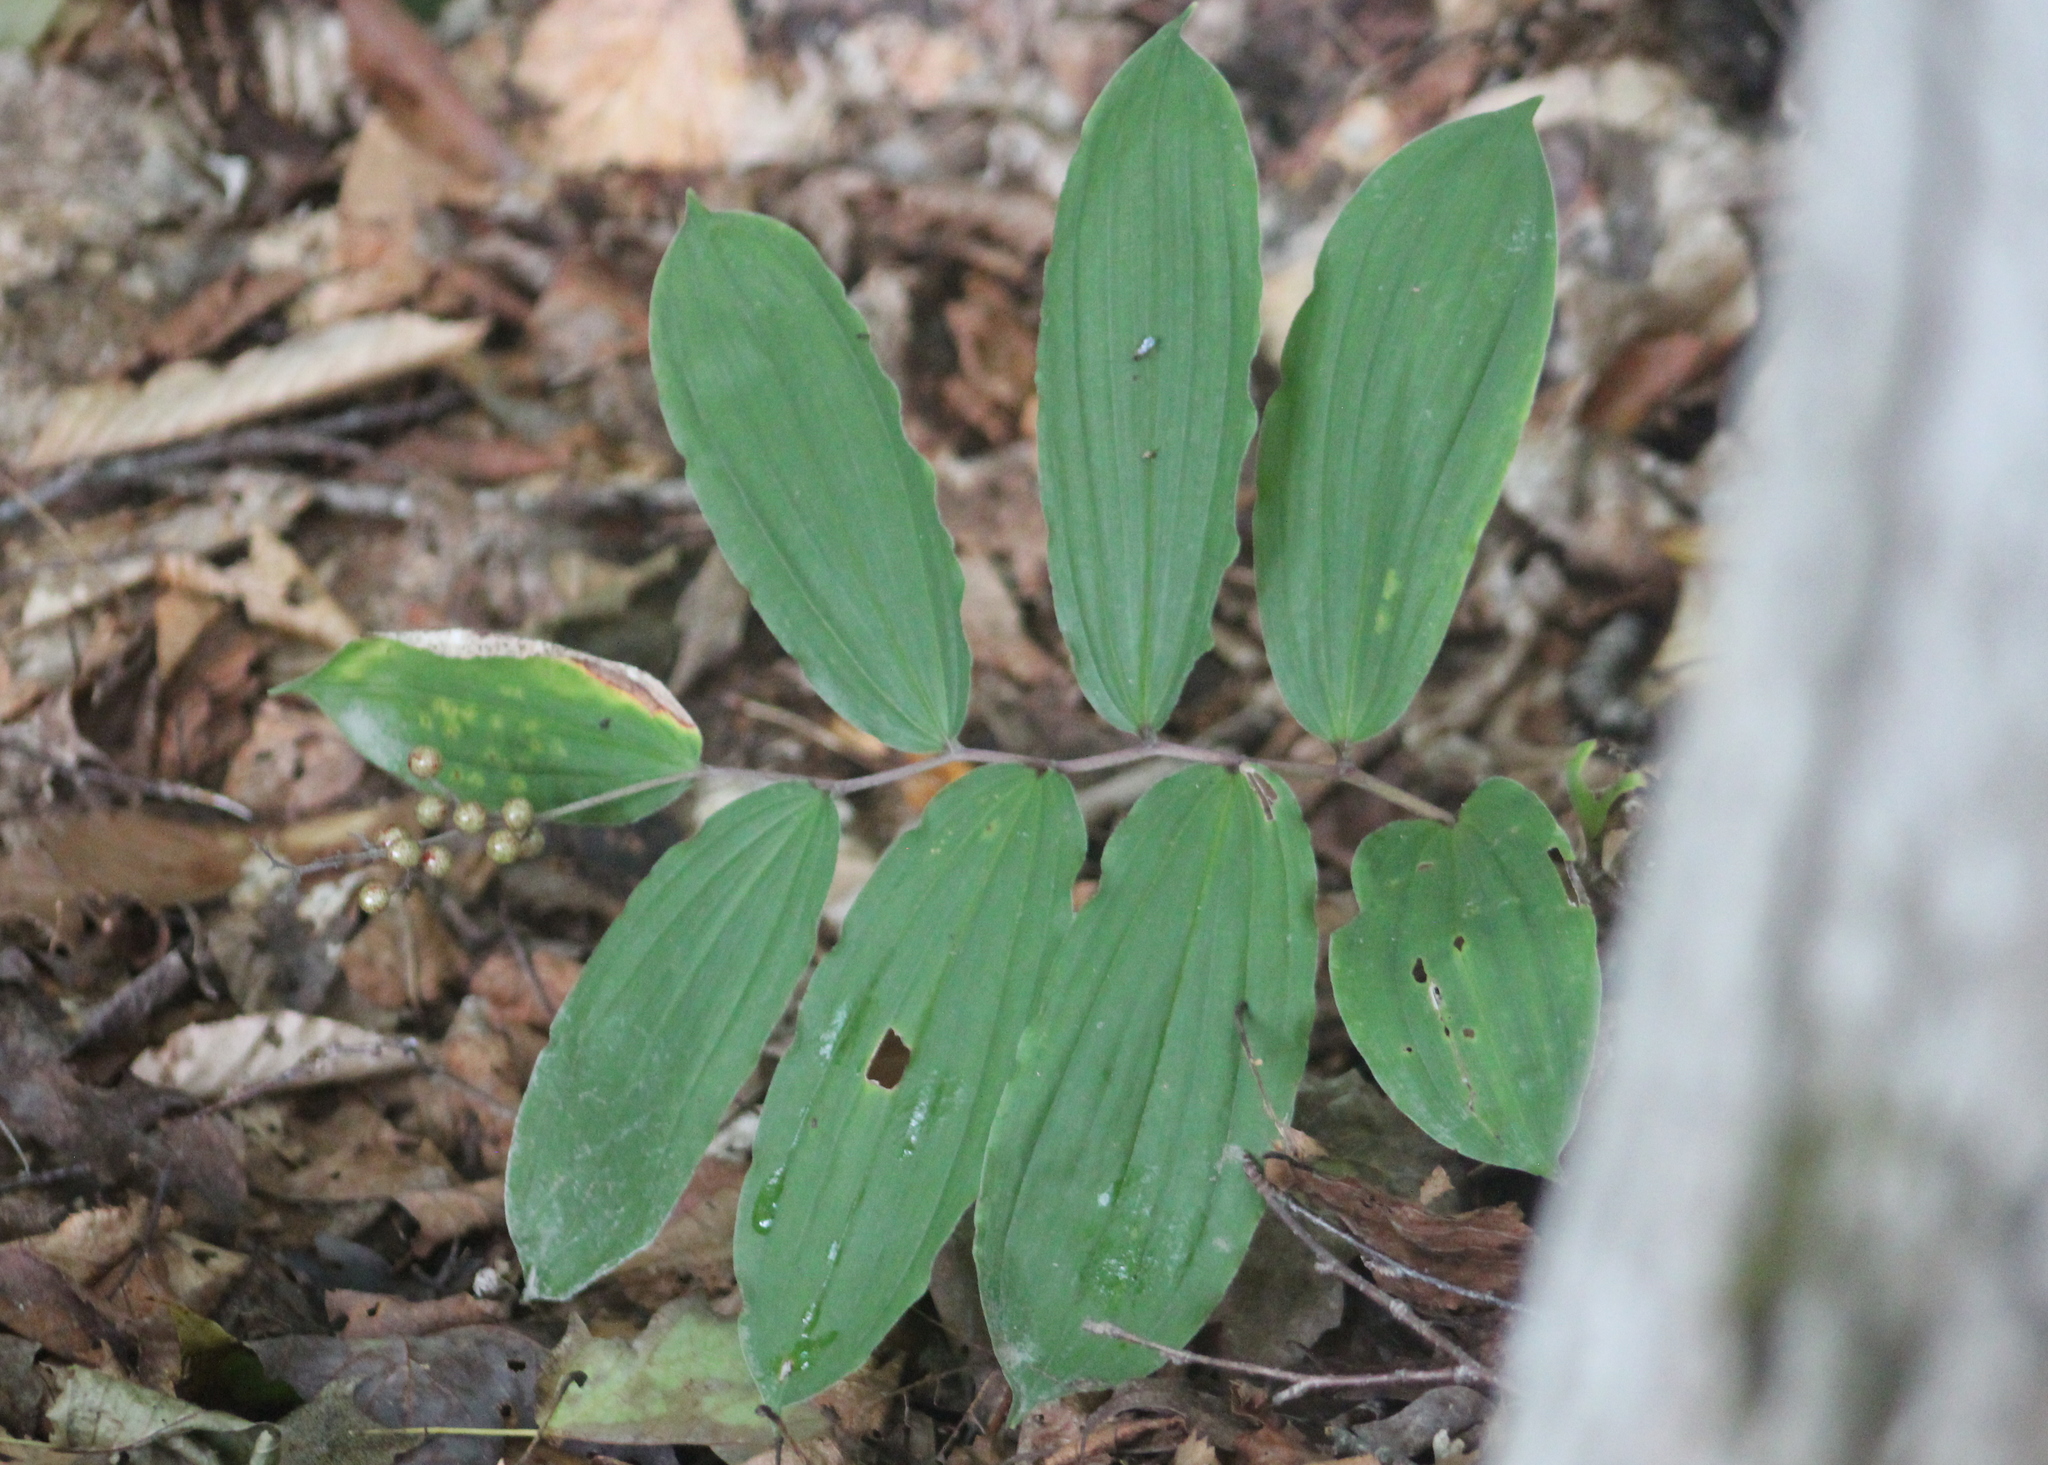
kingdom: Plantae
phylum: Tracheophyta
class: Liliopsida
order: Asparagales
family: Asparagaceae
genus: Maianthemum
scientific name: Maianthemum racemosum
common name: False spikenard
